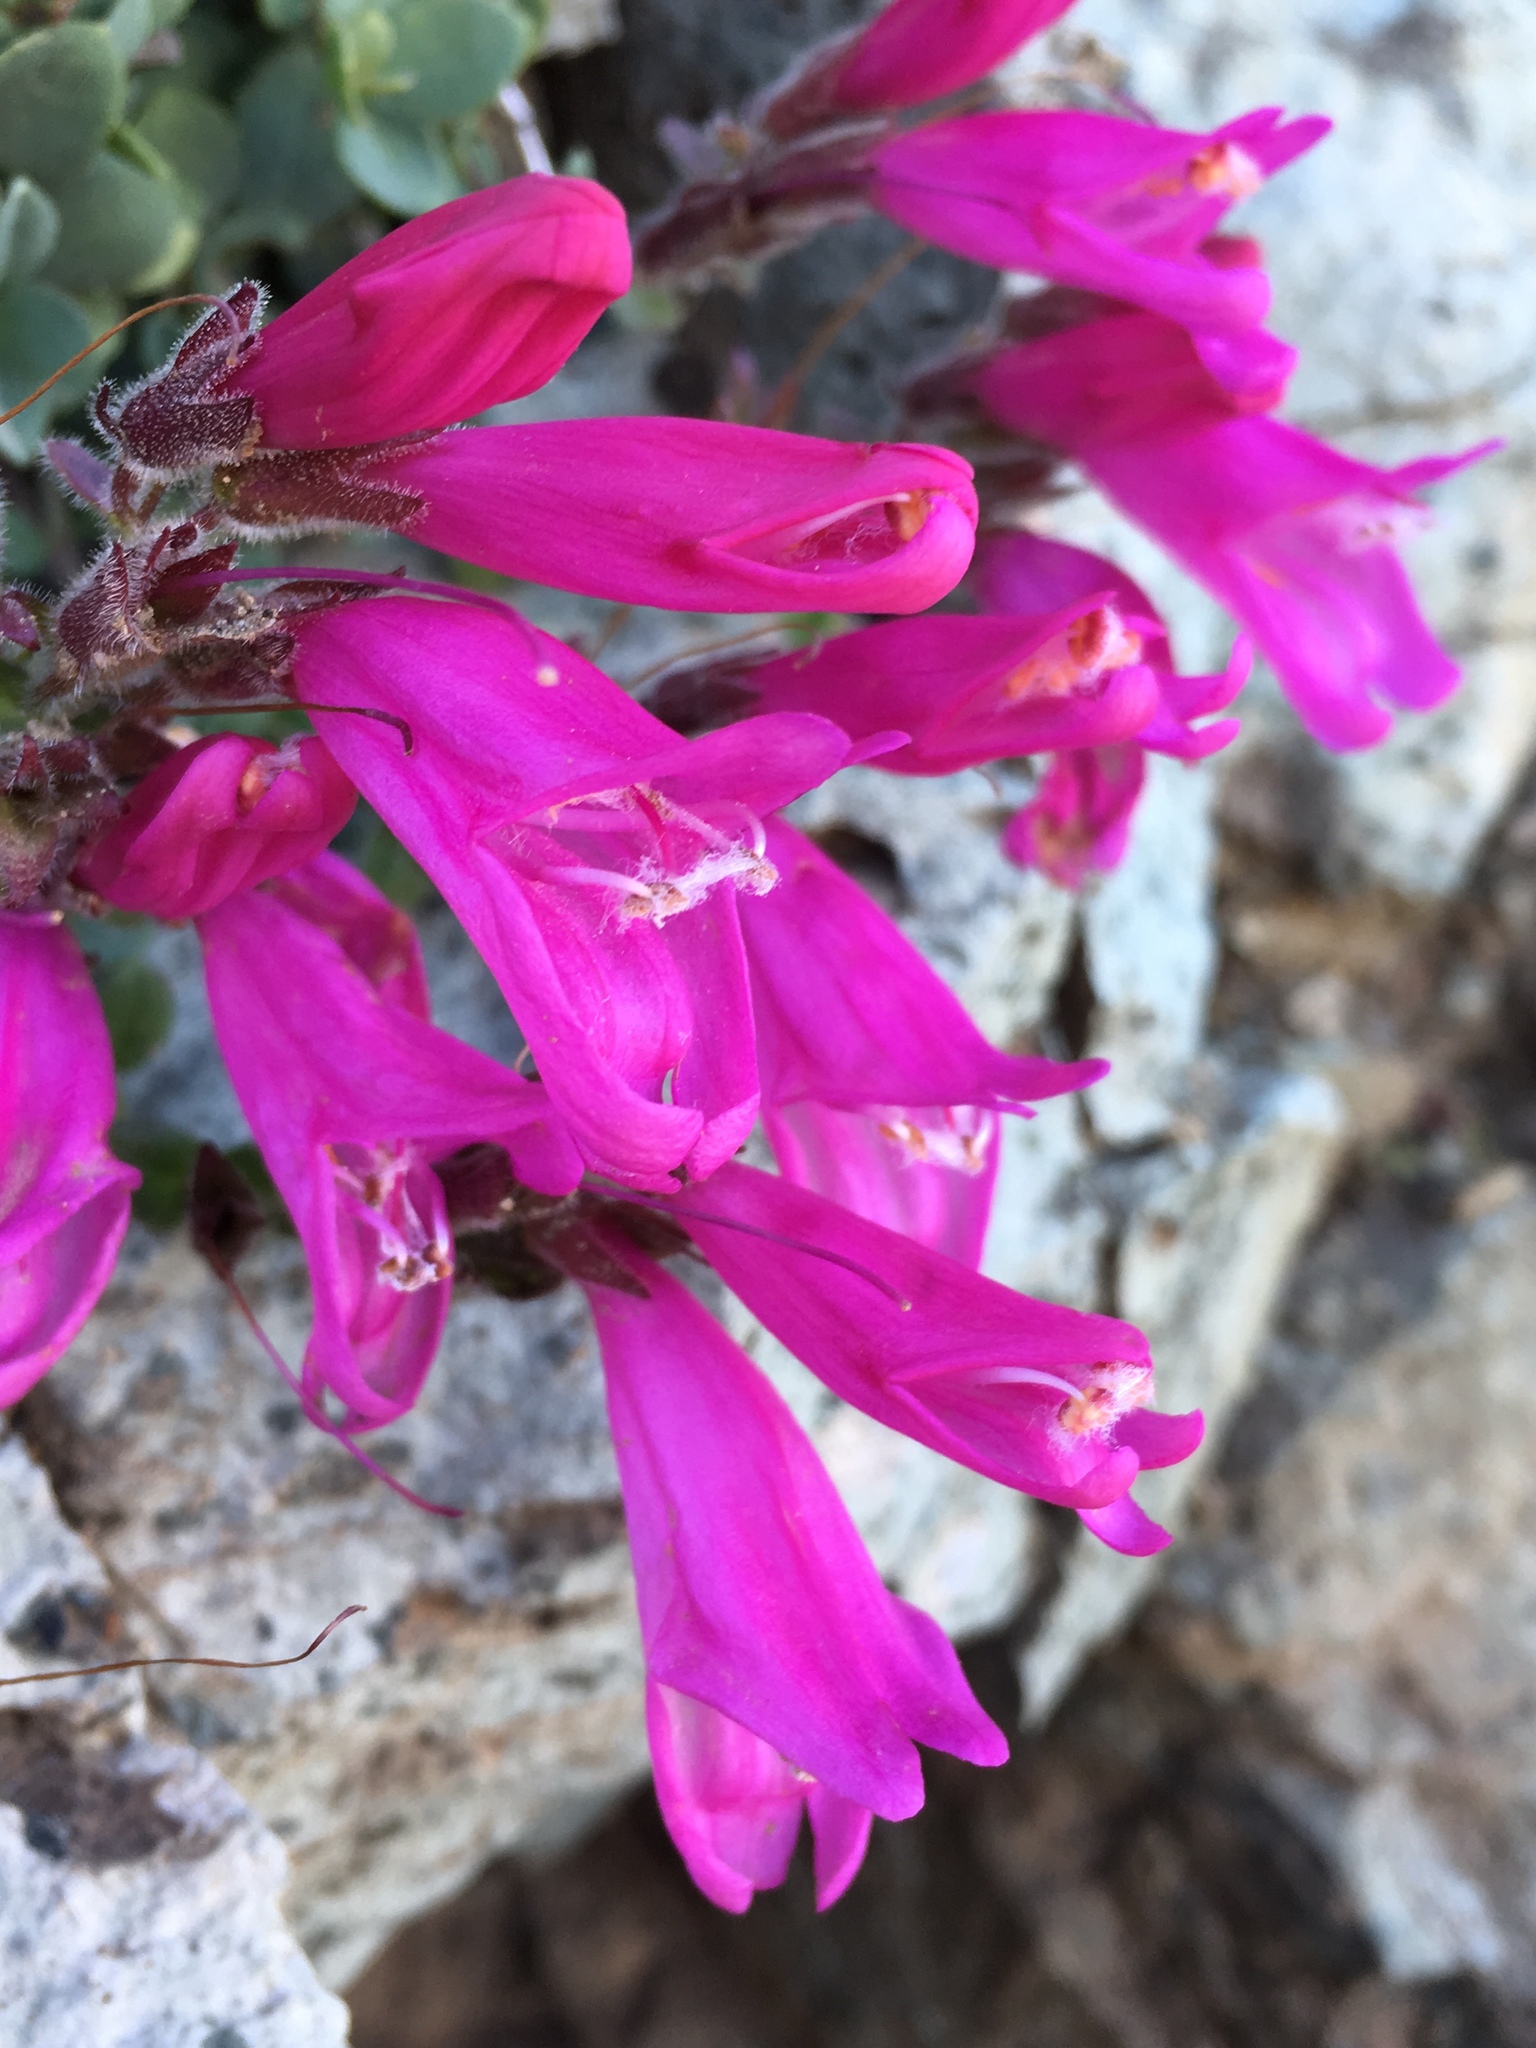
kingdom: Plantae
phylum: Tracheophyta
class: Magnoliopsida
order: Lamiales
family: Plantaginaceae
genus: Penstemon
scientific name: Penstemon rupicola
